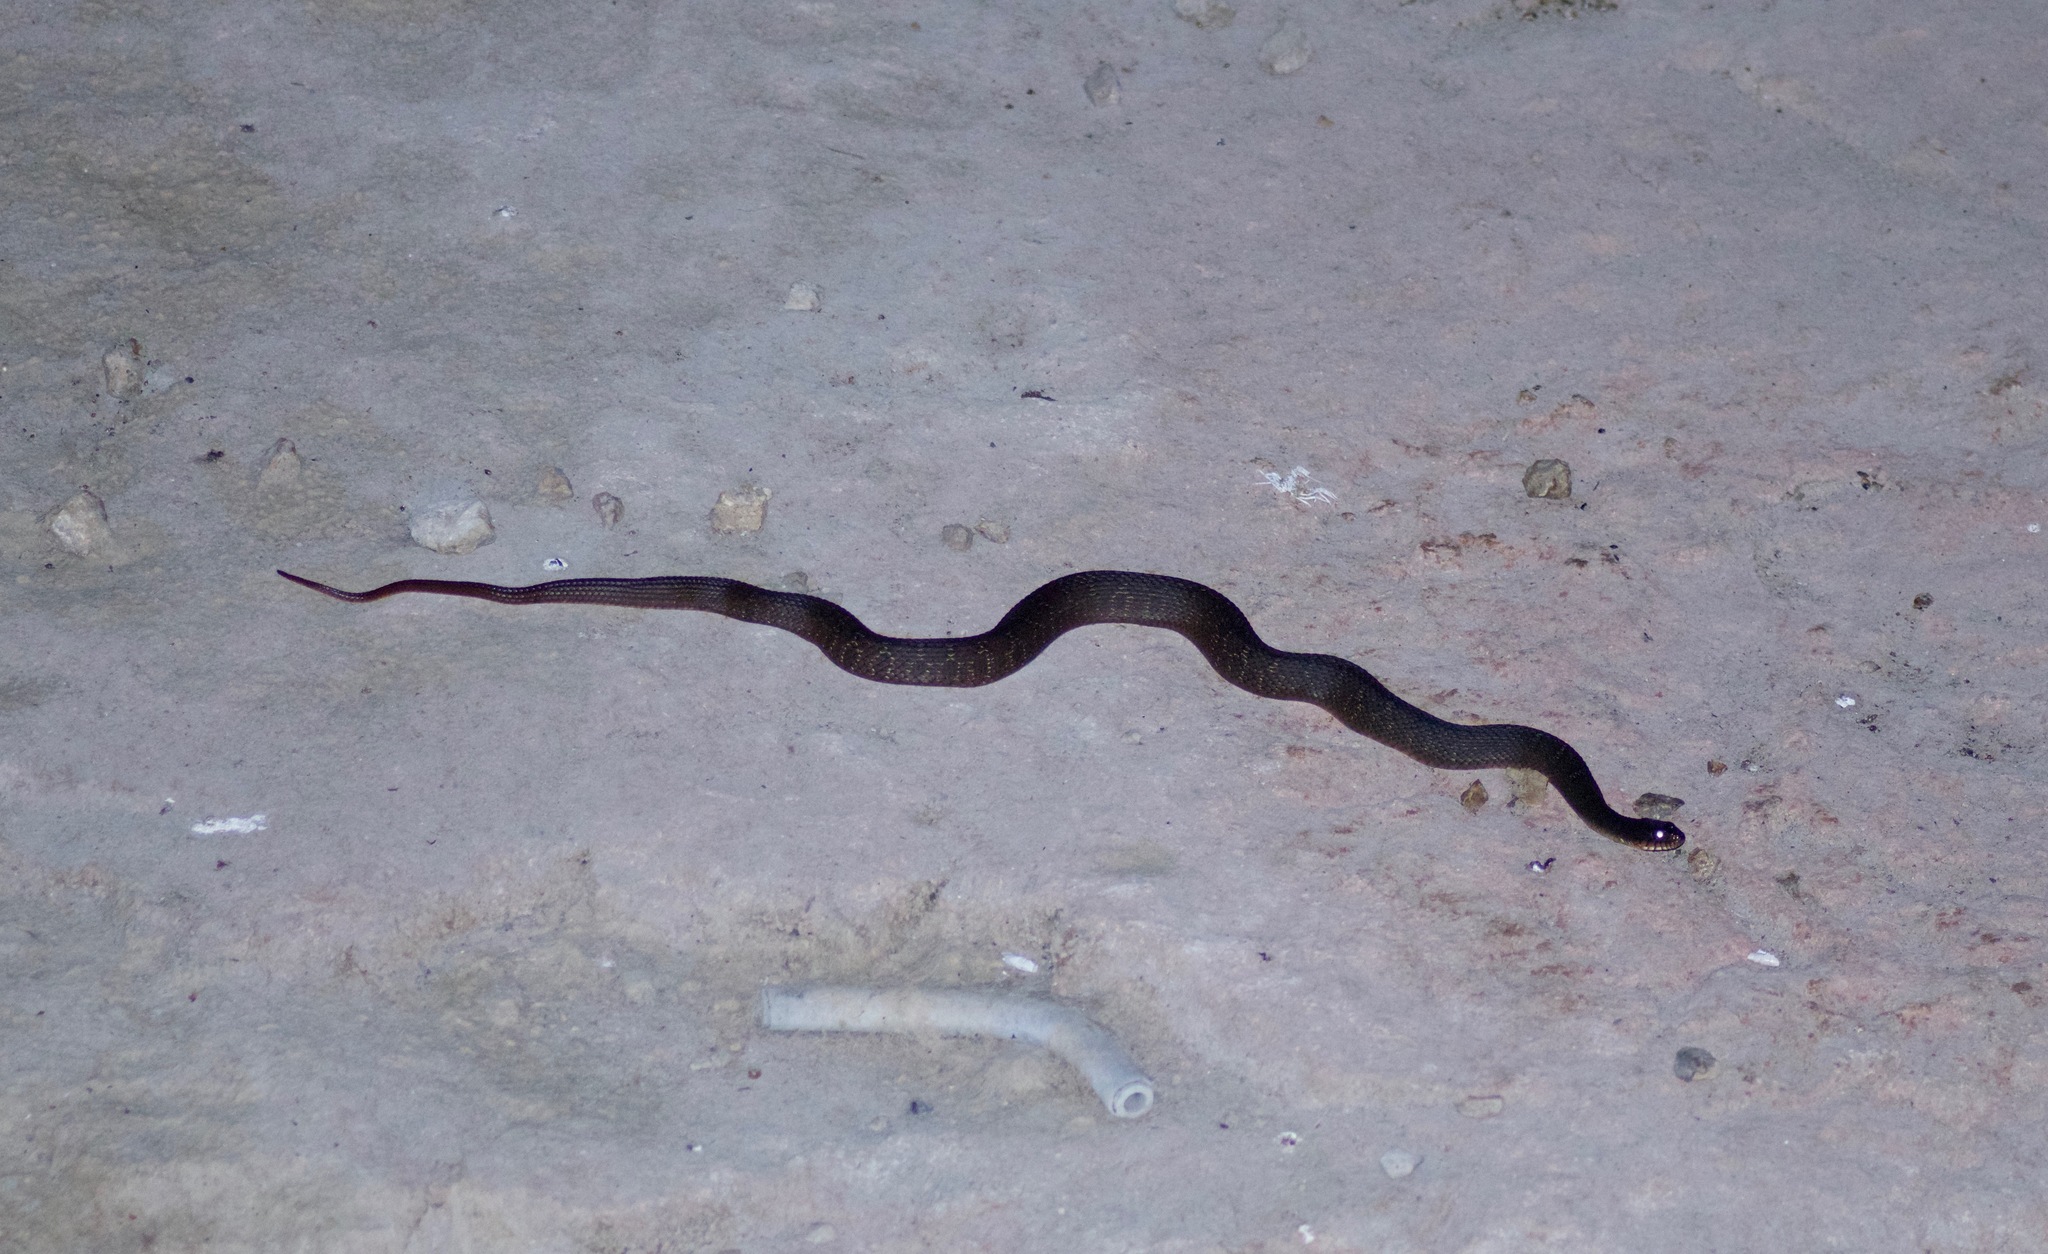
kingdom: Animalia
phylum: Chordata
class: Squamata
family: Colubridae
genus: Nerodia
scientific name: Nerodia erythrogaster
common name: Plainbelly water snake
